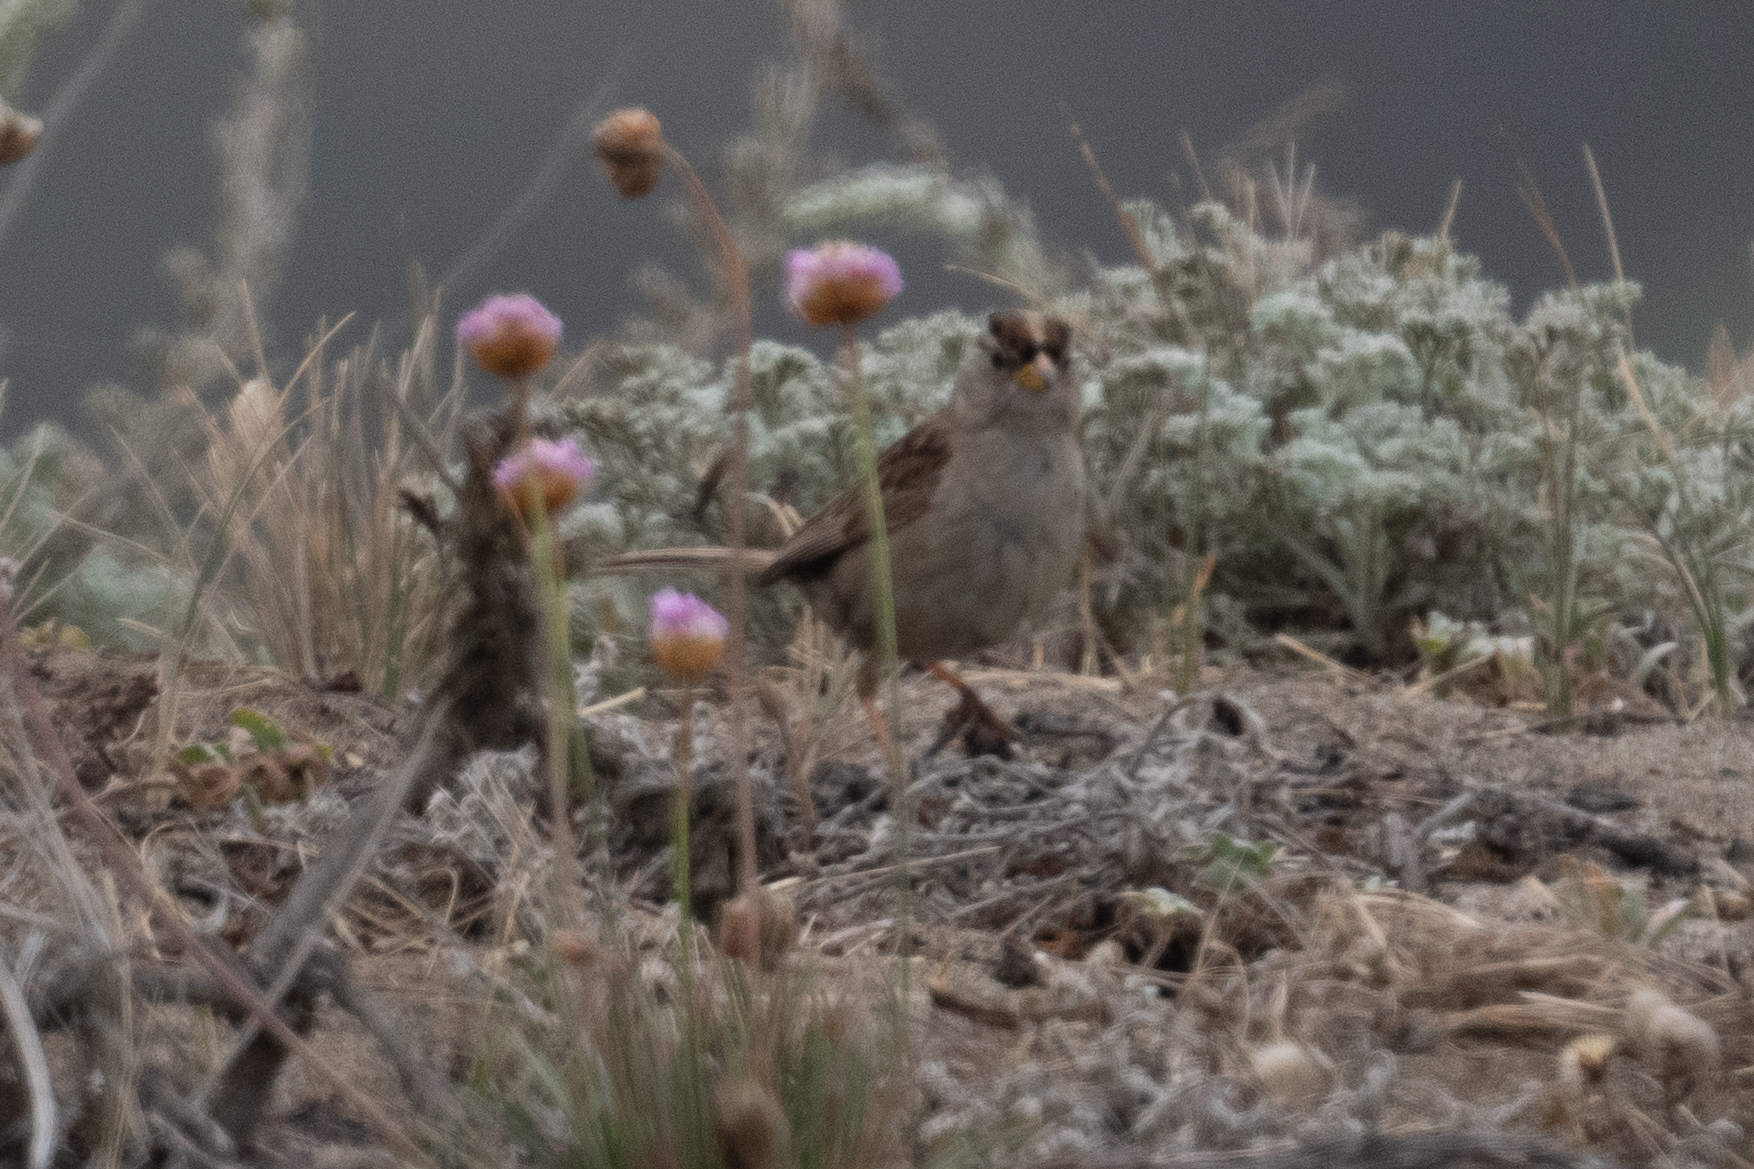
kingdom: Animalia
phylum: Chordata
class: Aves
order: Passeriformes
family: Passerellidae
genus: Zonotrichia
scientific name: Zonotrichia leucophrys
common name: White-crowned sparrow
